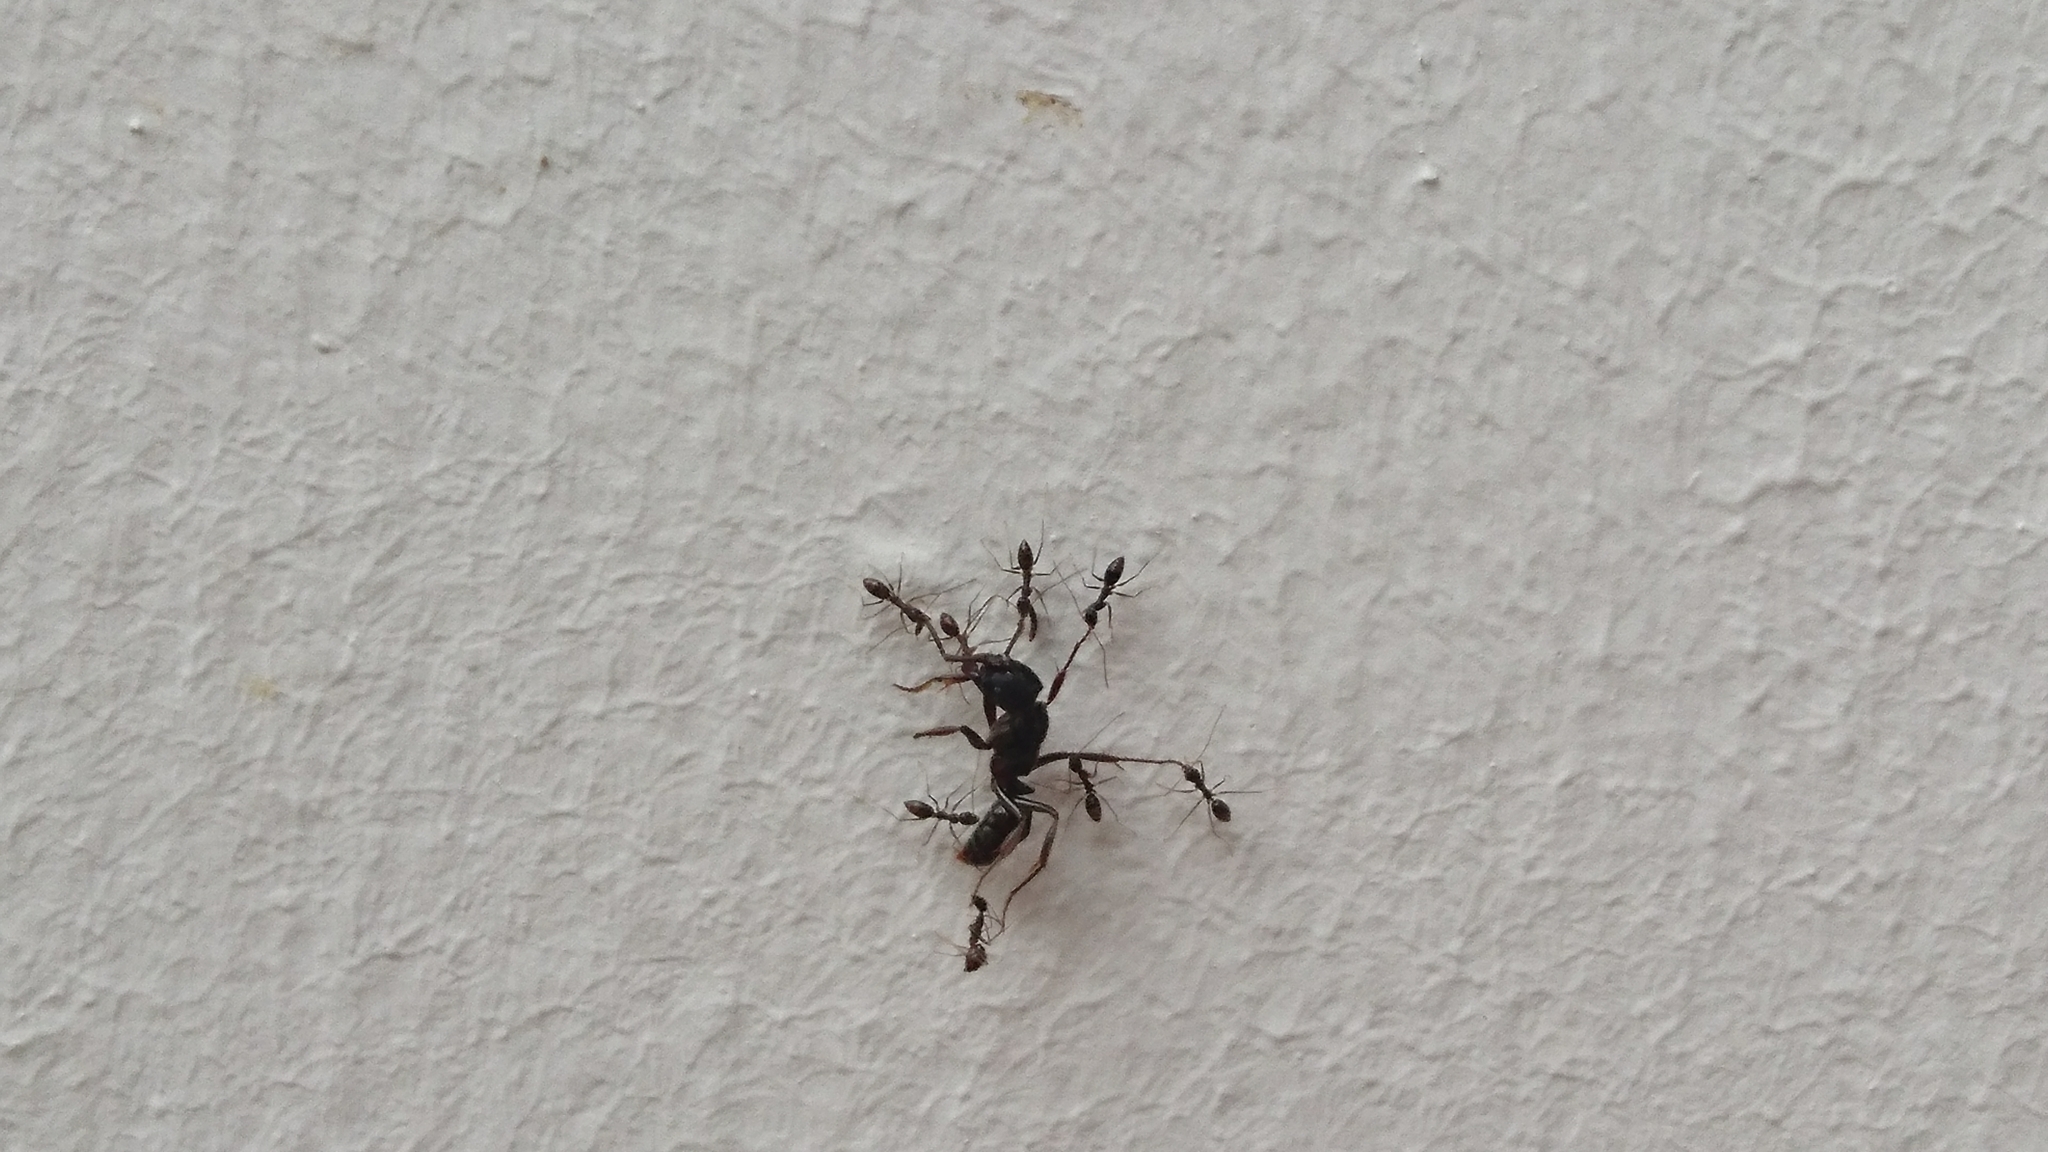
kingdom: Animalia
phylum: Arthropoda
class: Insecta
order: Hymenoptera
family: Formicidae
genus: Paratrechina
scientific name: Paratrechina longicornis
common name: Longhorned crazy ant
